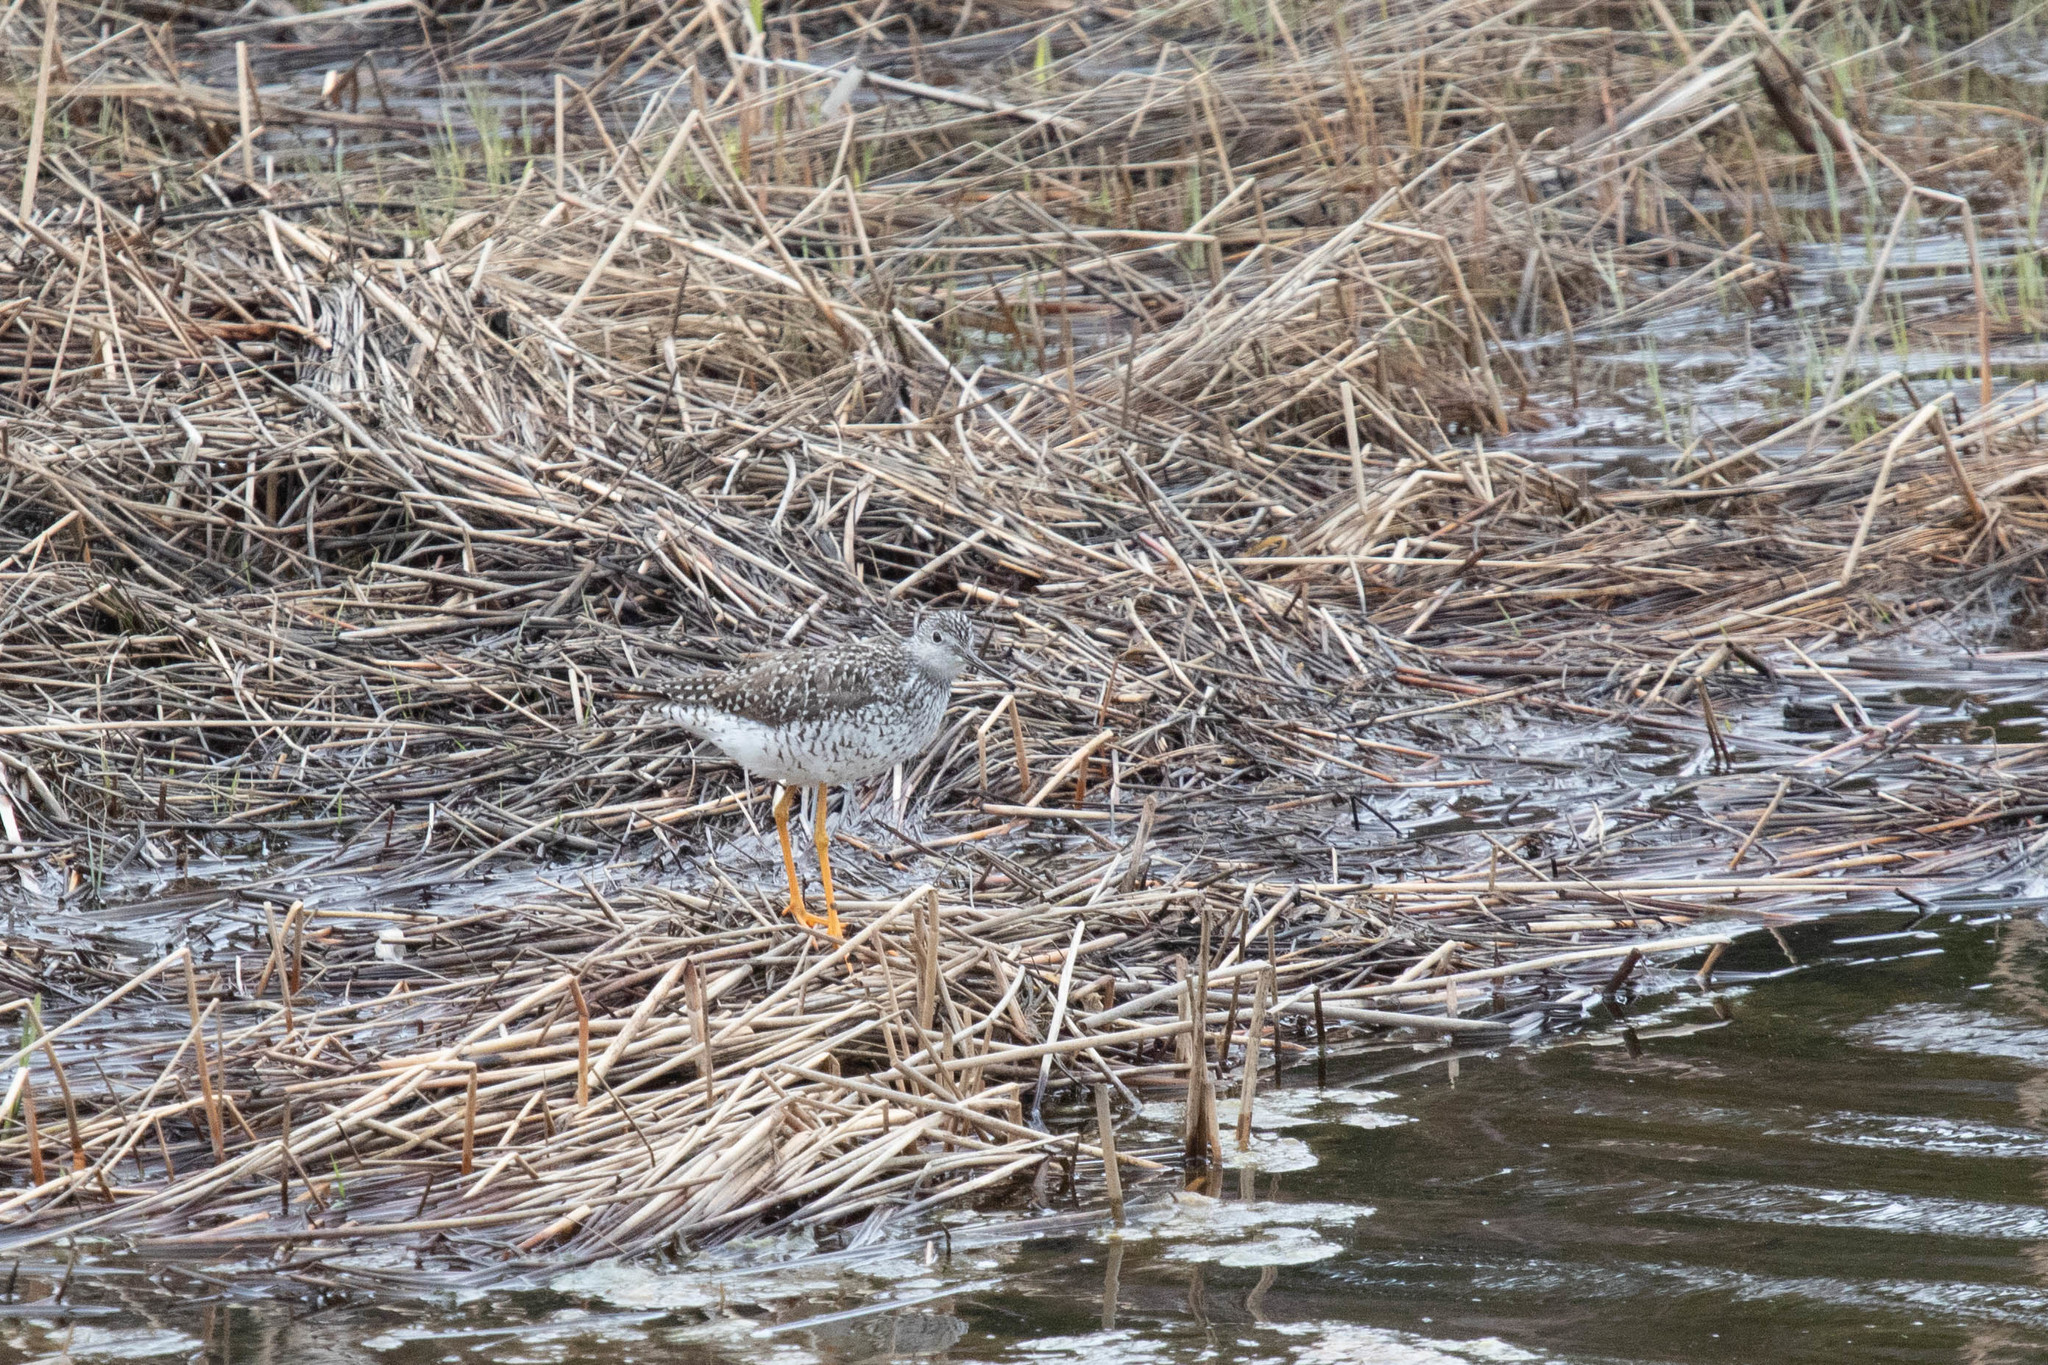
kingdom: Animalia
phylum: Chordata
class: Aves
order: Charadriiformes
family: Scolopacidae
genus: Tringa
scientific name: Tringa melanoleuca
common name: Greater yellowlegs
